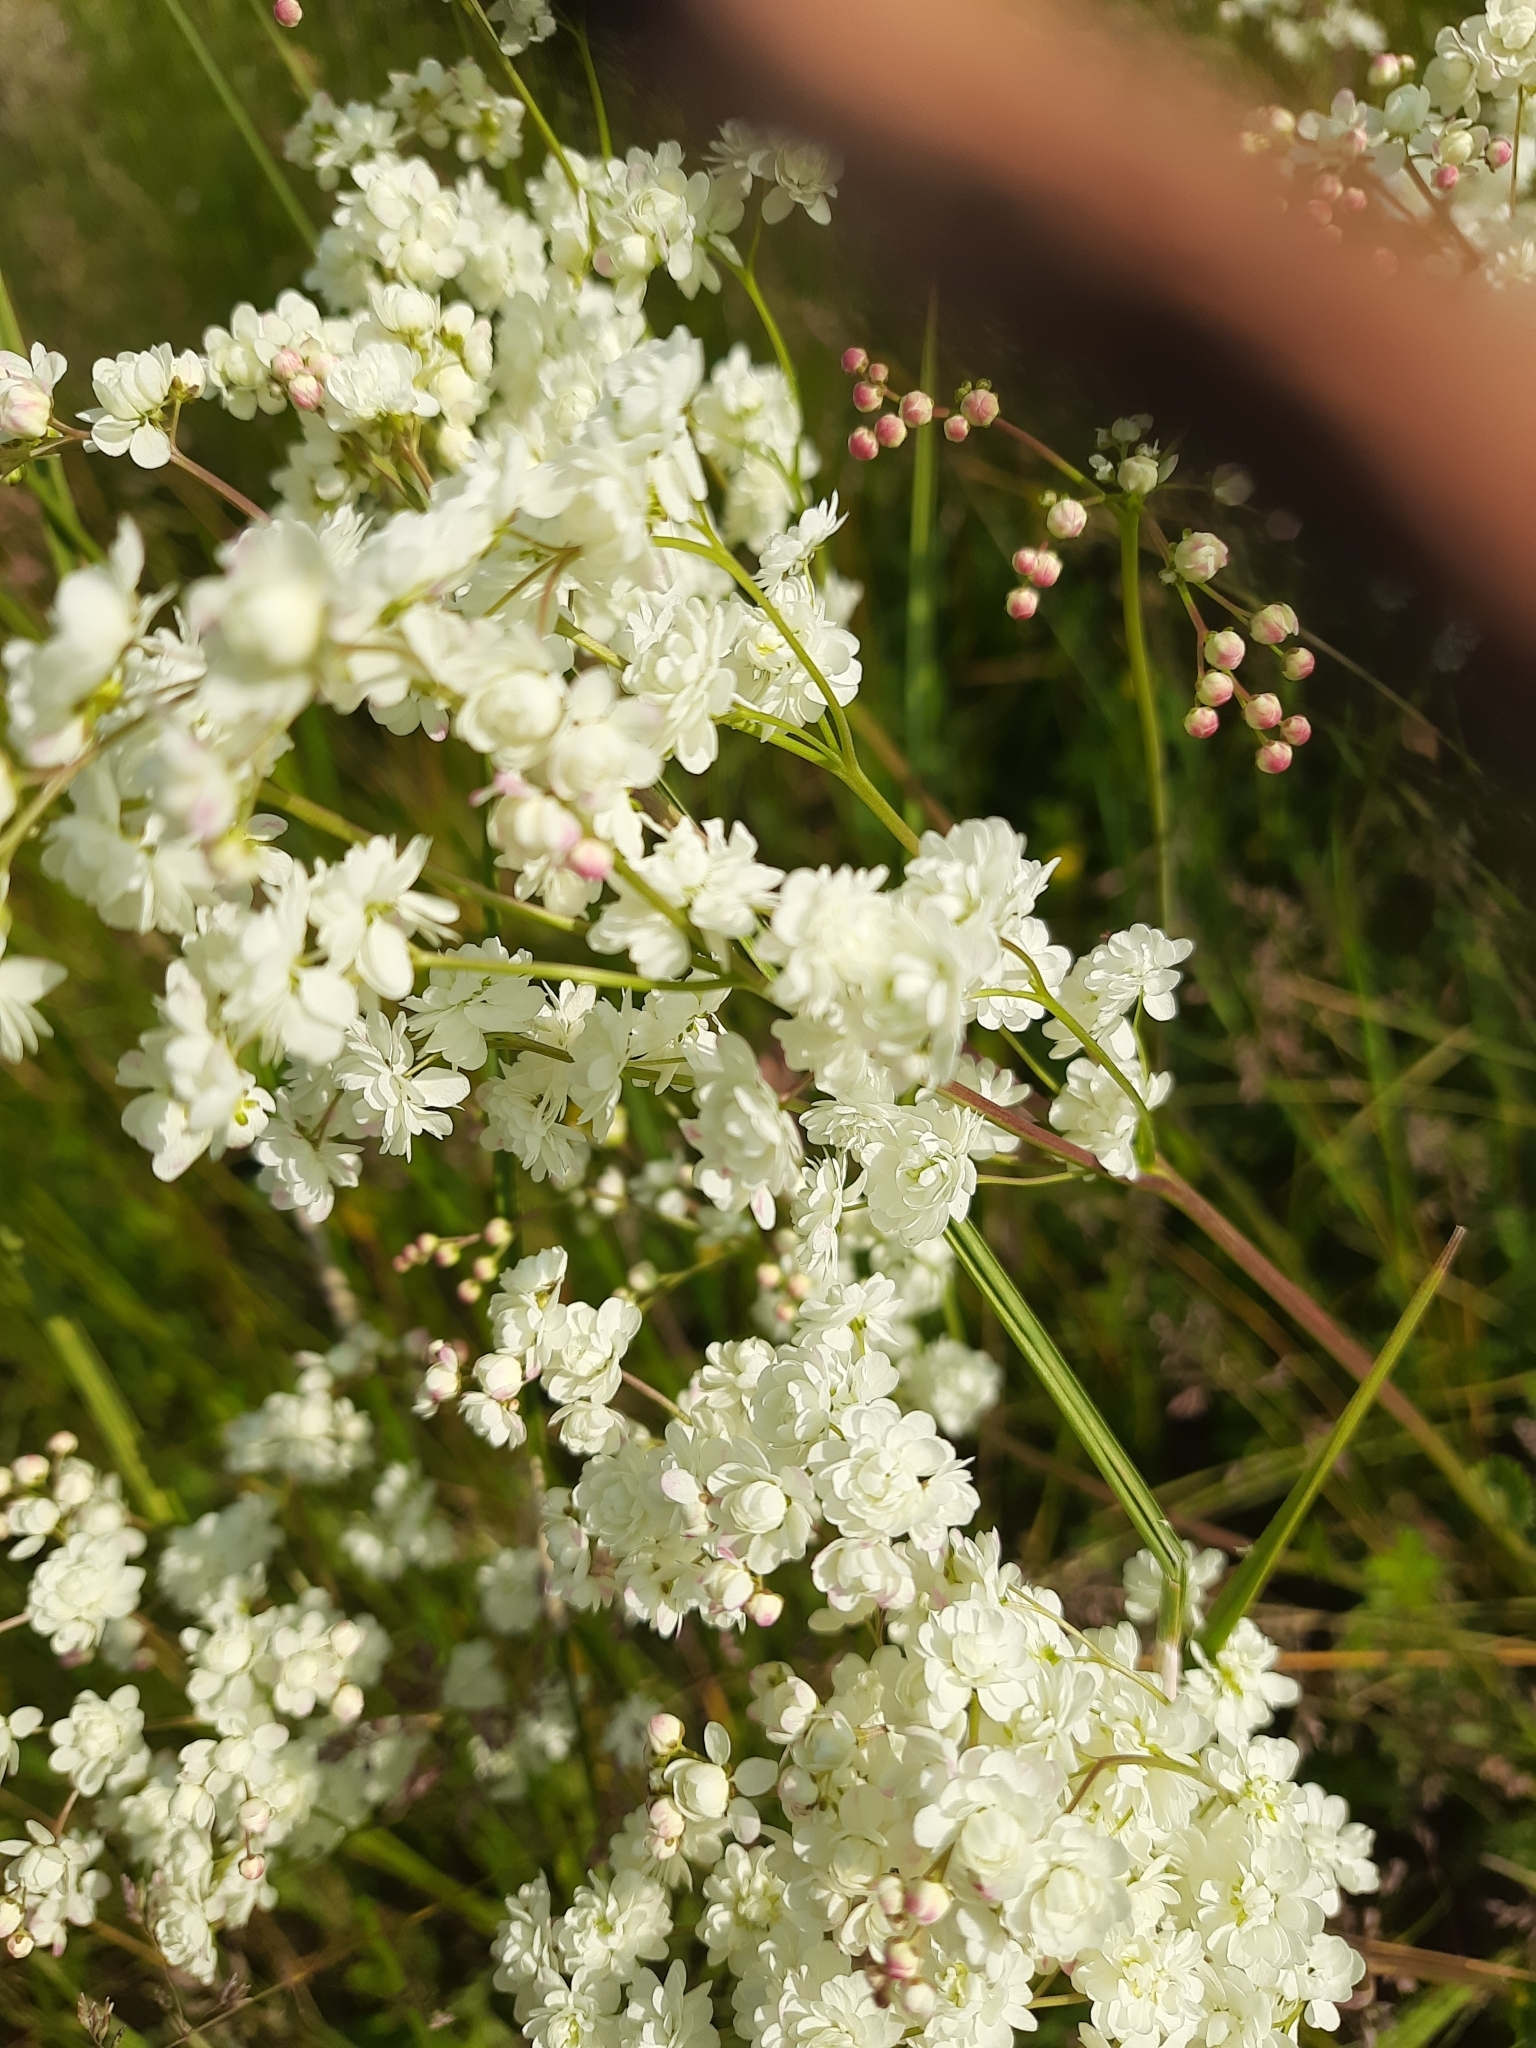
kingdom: Plantae
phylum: Tracheophyta
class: Magnoliopsida
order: Rosales
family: Rosaceae
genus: Filipendula
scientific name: Filipendula vulgaris
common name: Dropwort
